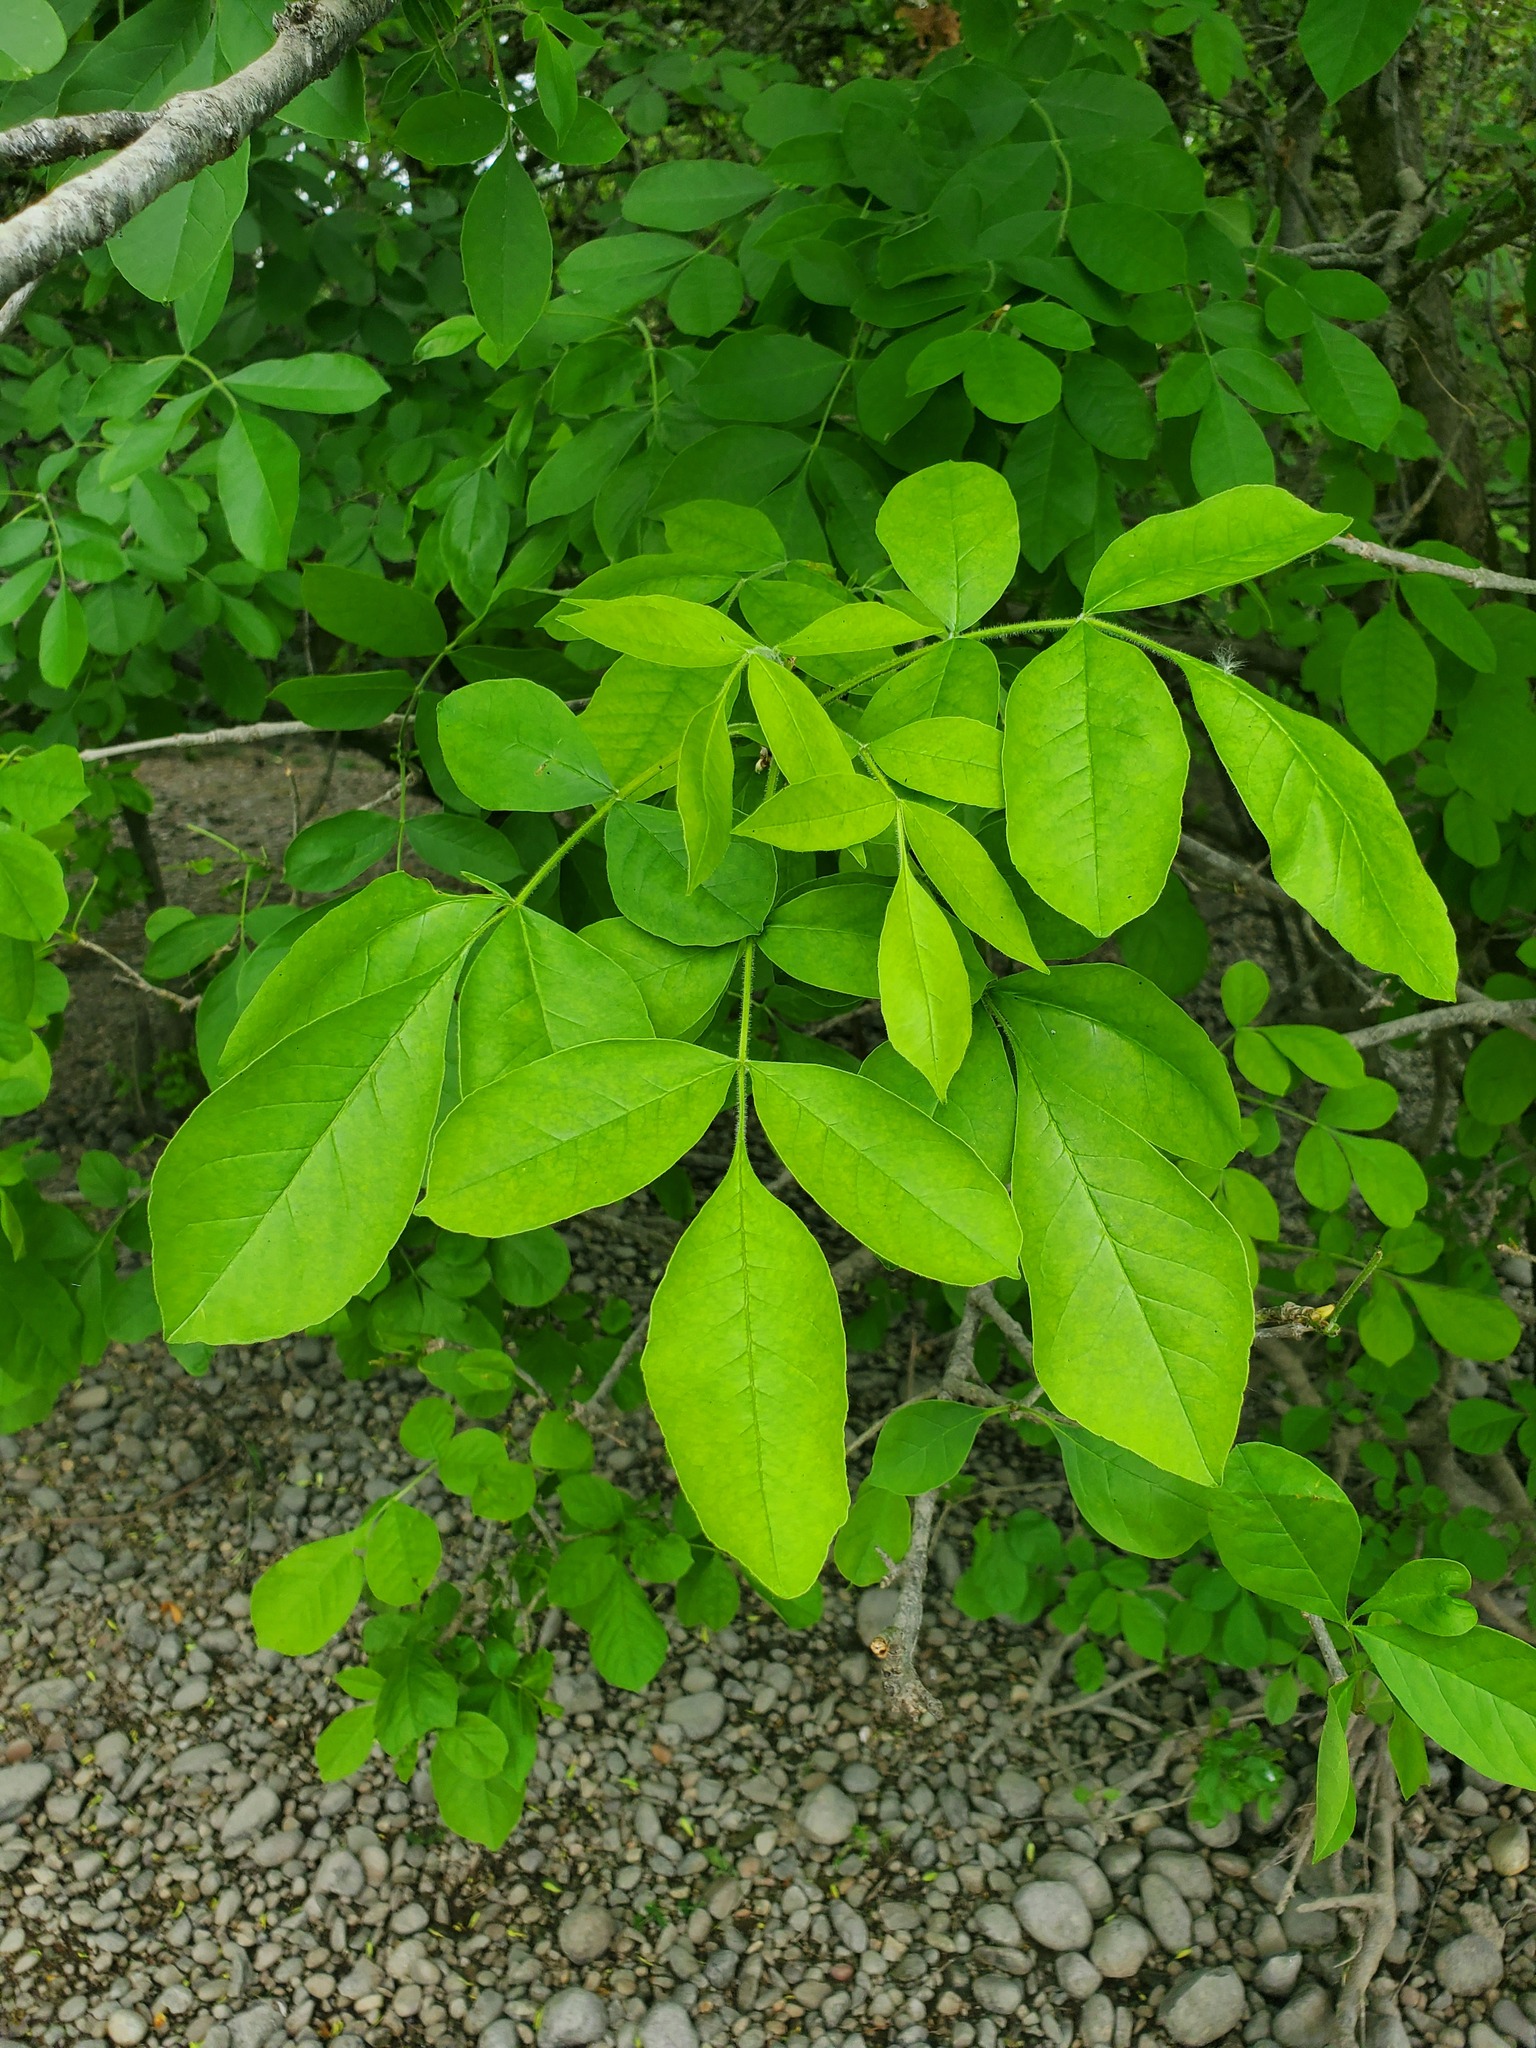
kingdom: Plantae
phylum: Tracheophyta
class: Magnoliopsida
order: Lamiales
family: Oleaceae
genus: Fraxinus
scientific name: Fraxinus latifolia
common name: Oregon ash
